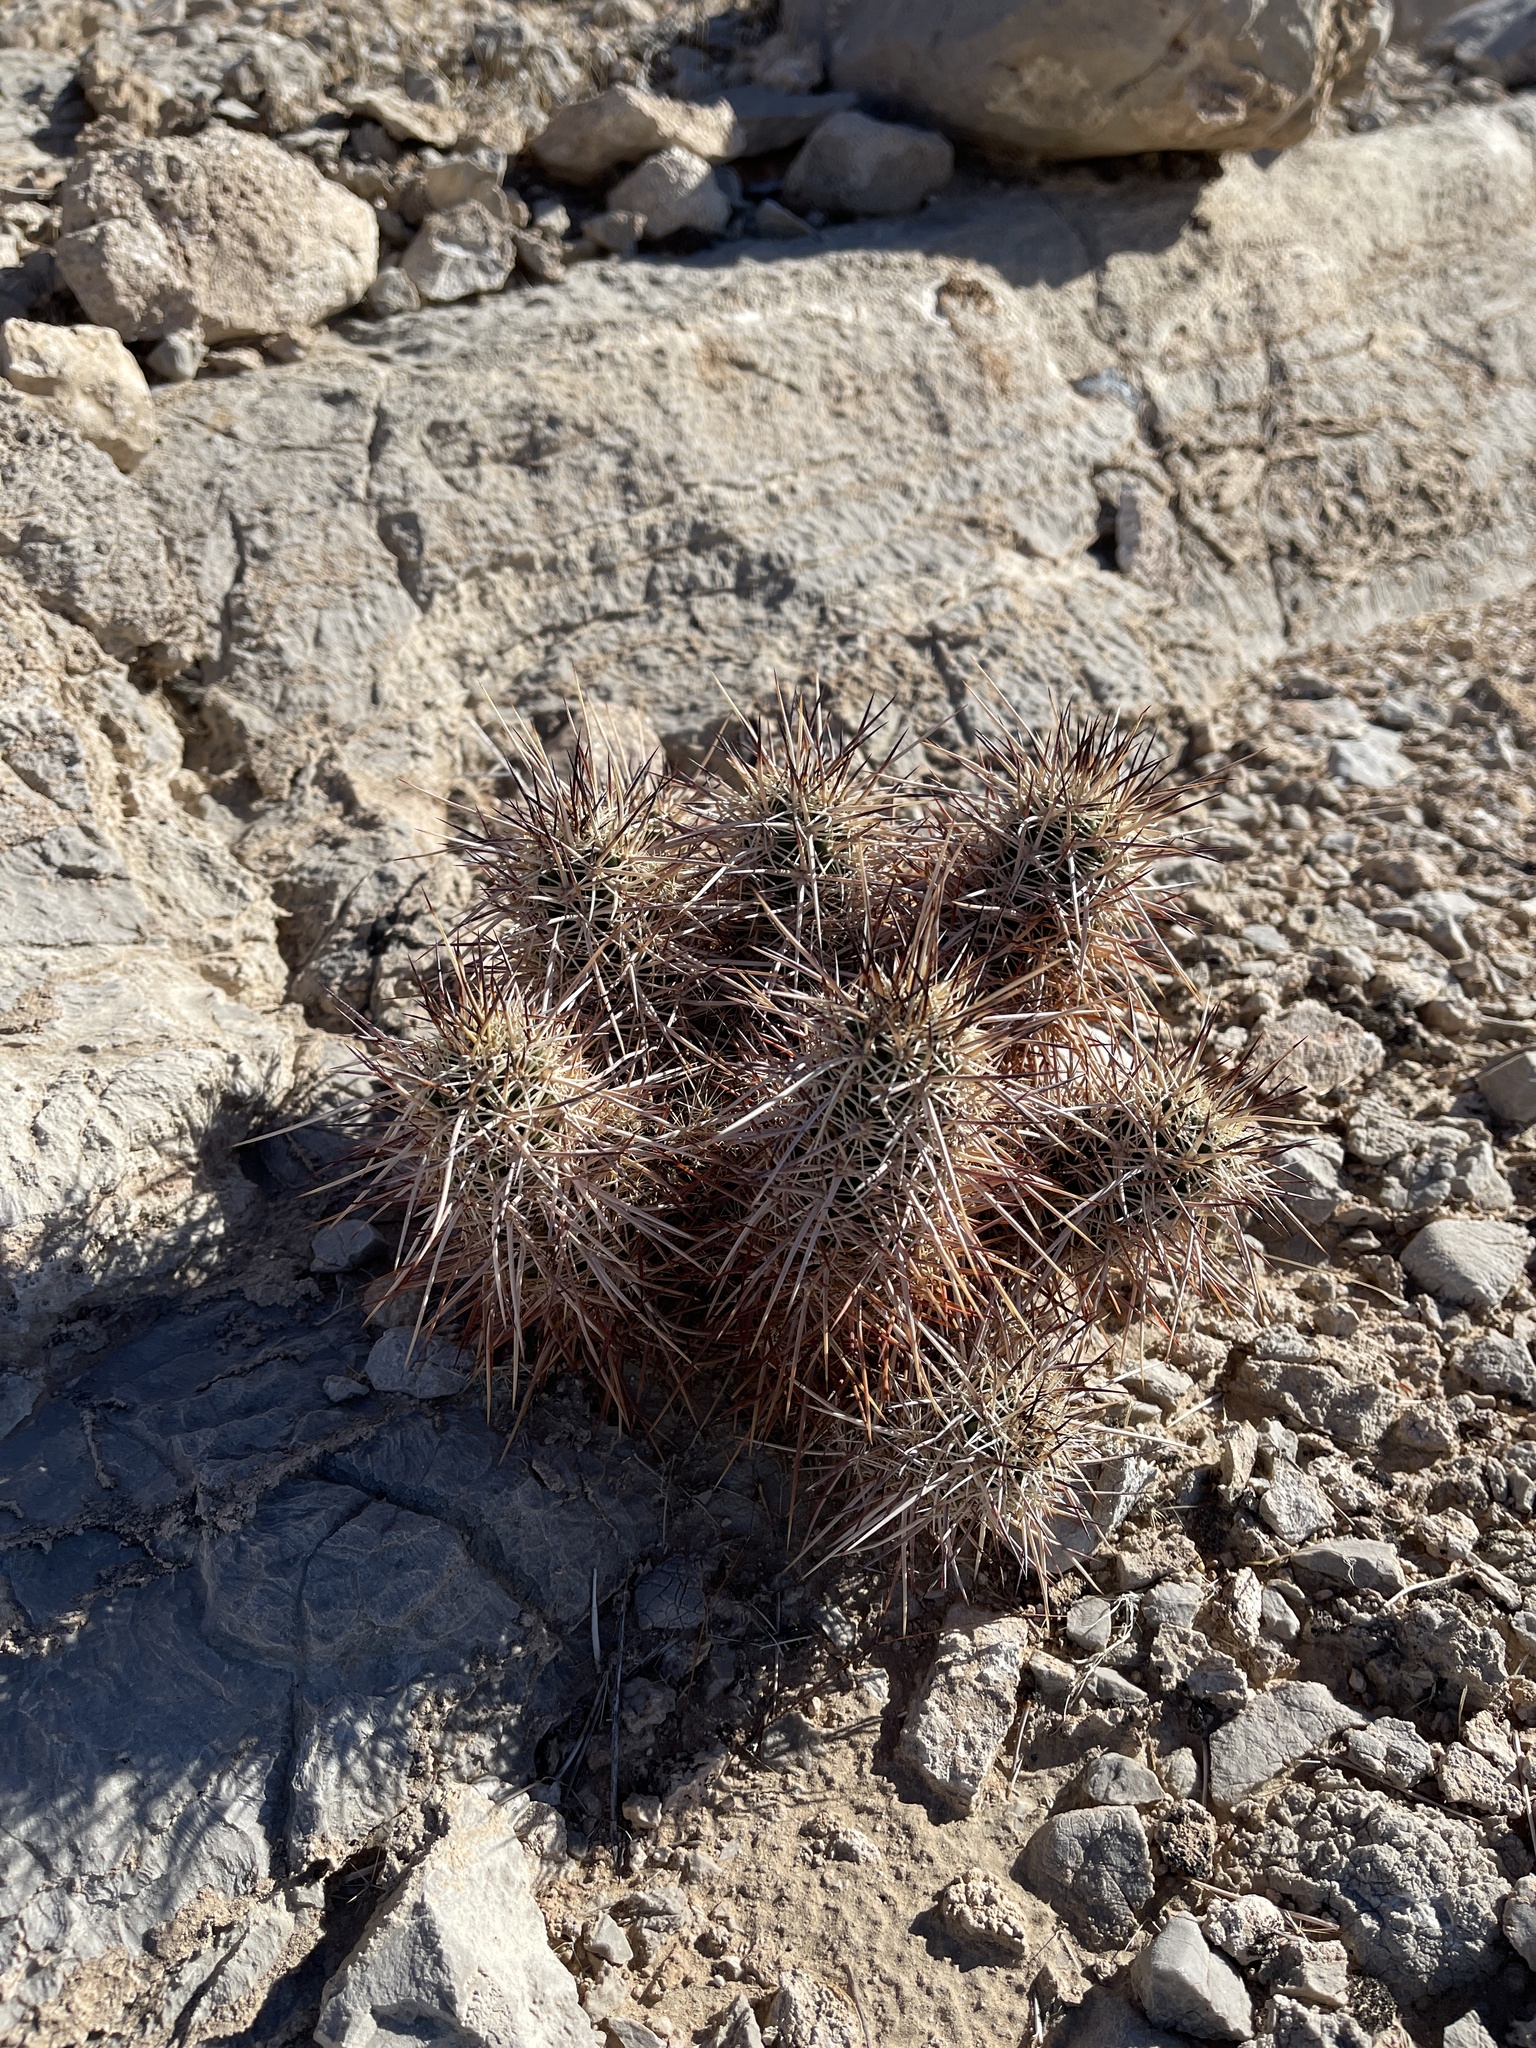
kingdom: Plantae
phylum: Tracheophyta
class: Magnoliopsida
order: Caryophyllales
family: Cactaceae
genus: Echinocereus
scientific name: Echinocereus engelmannii
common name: Engelmann's hedgehog cactus
